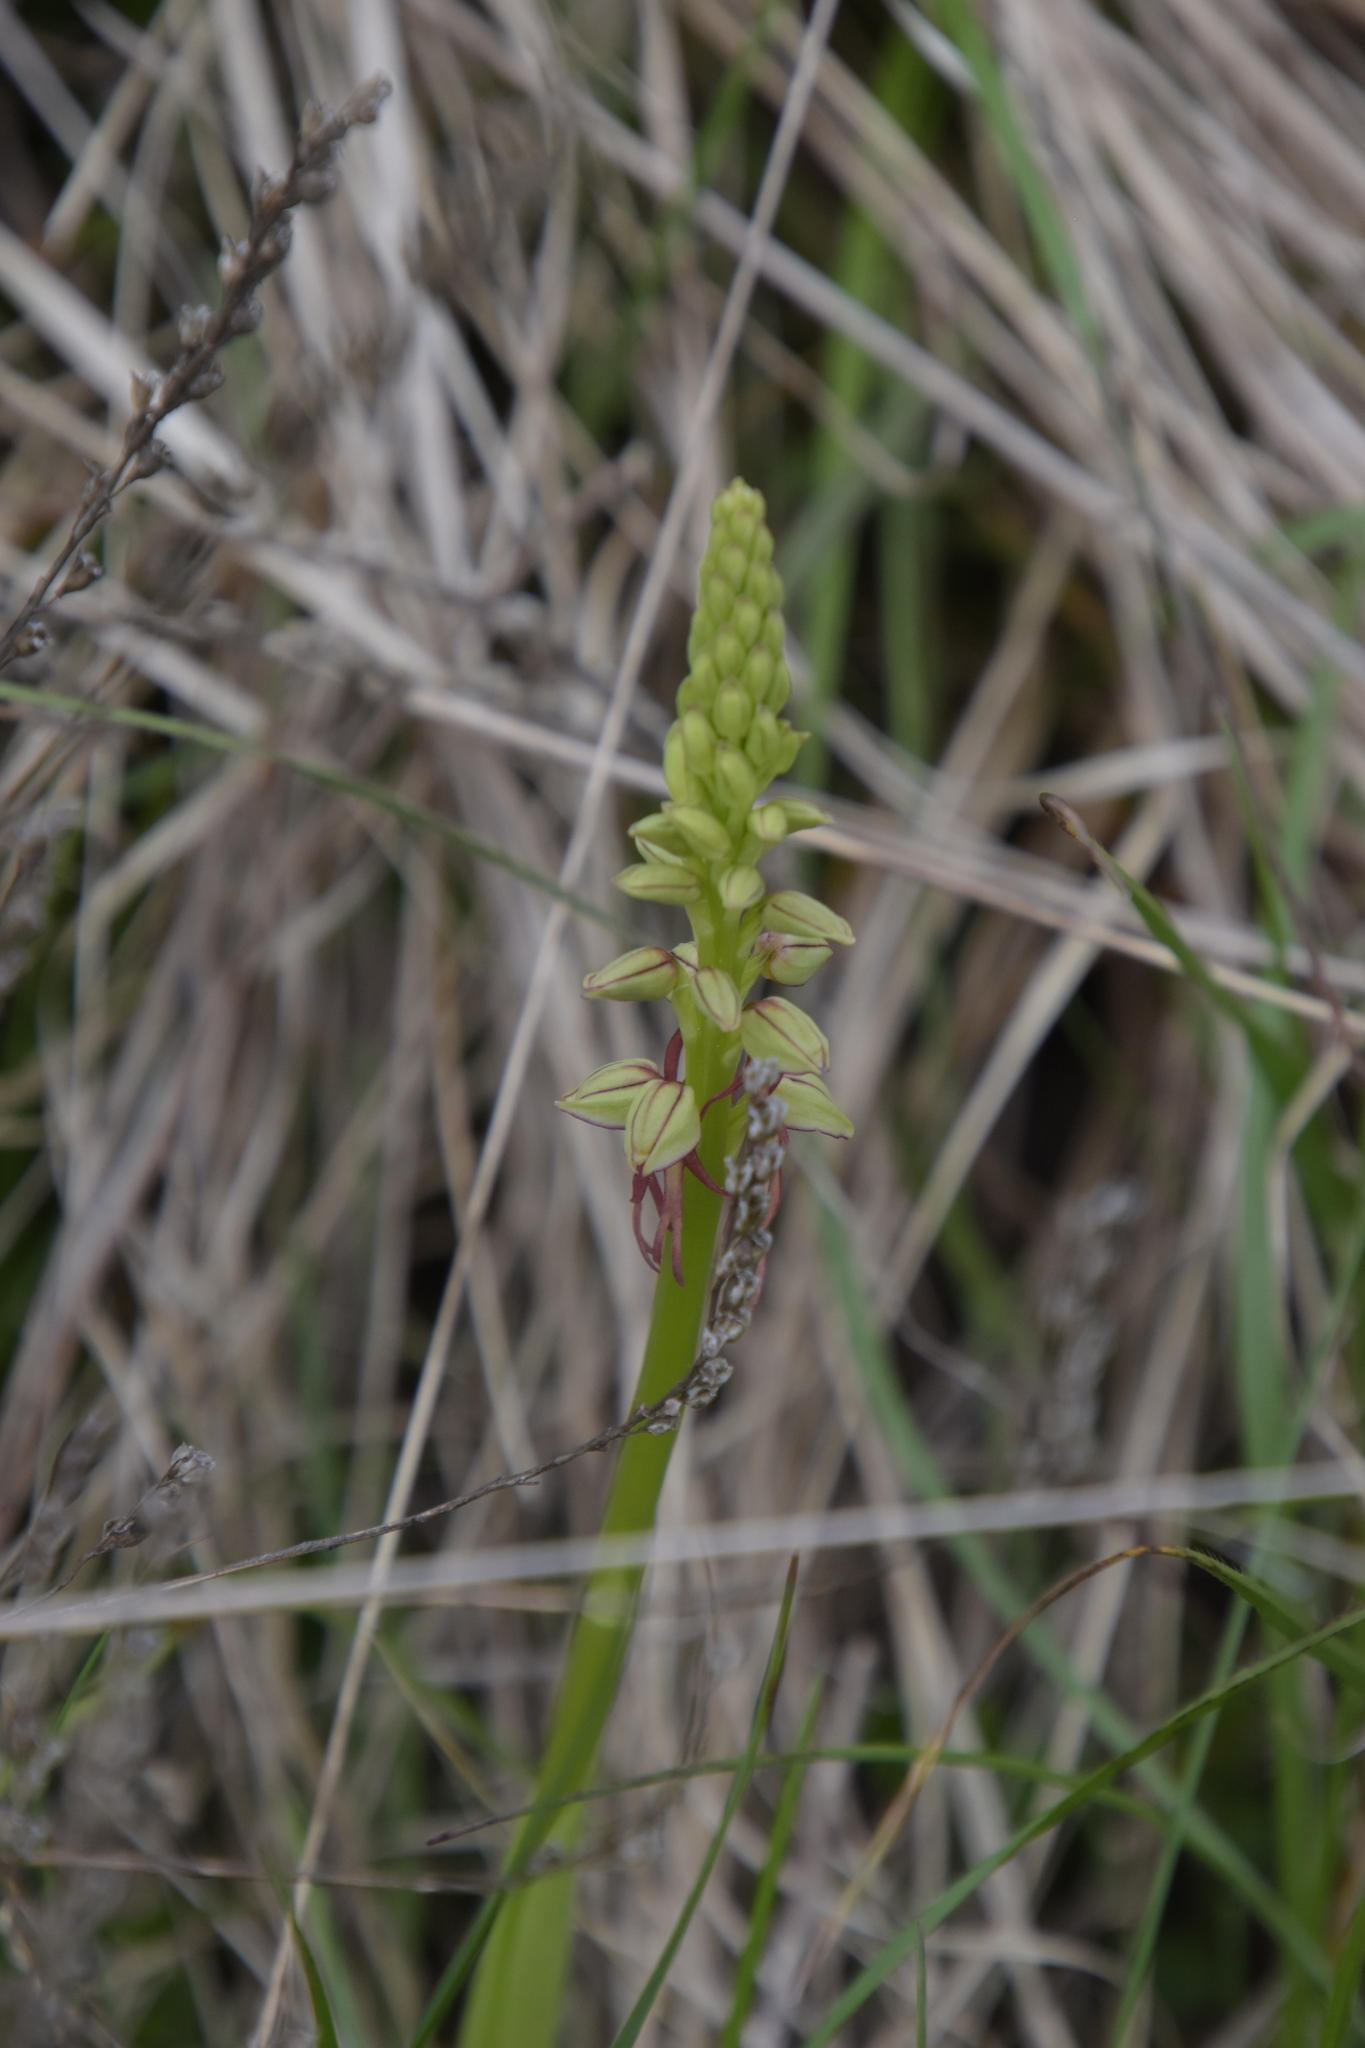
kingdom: Plantae
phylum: Tracheophyta
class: Liliopsida
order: Asparagales
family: Orchidaceae
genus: Orchis
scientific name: Orchis anthropophora
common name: Man orchid
